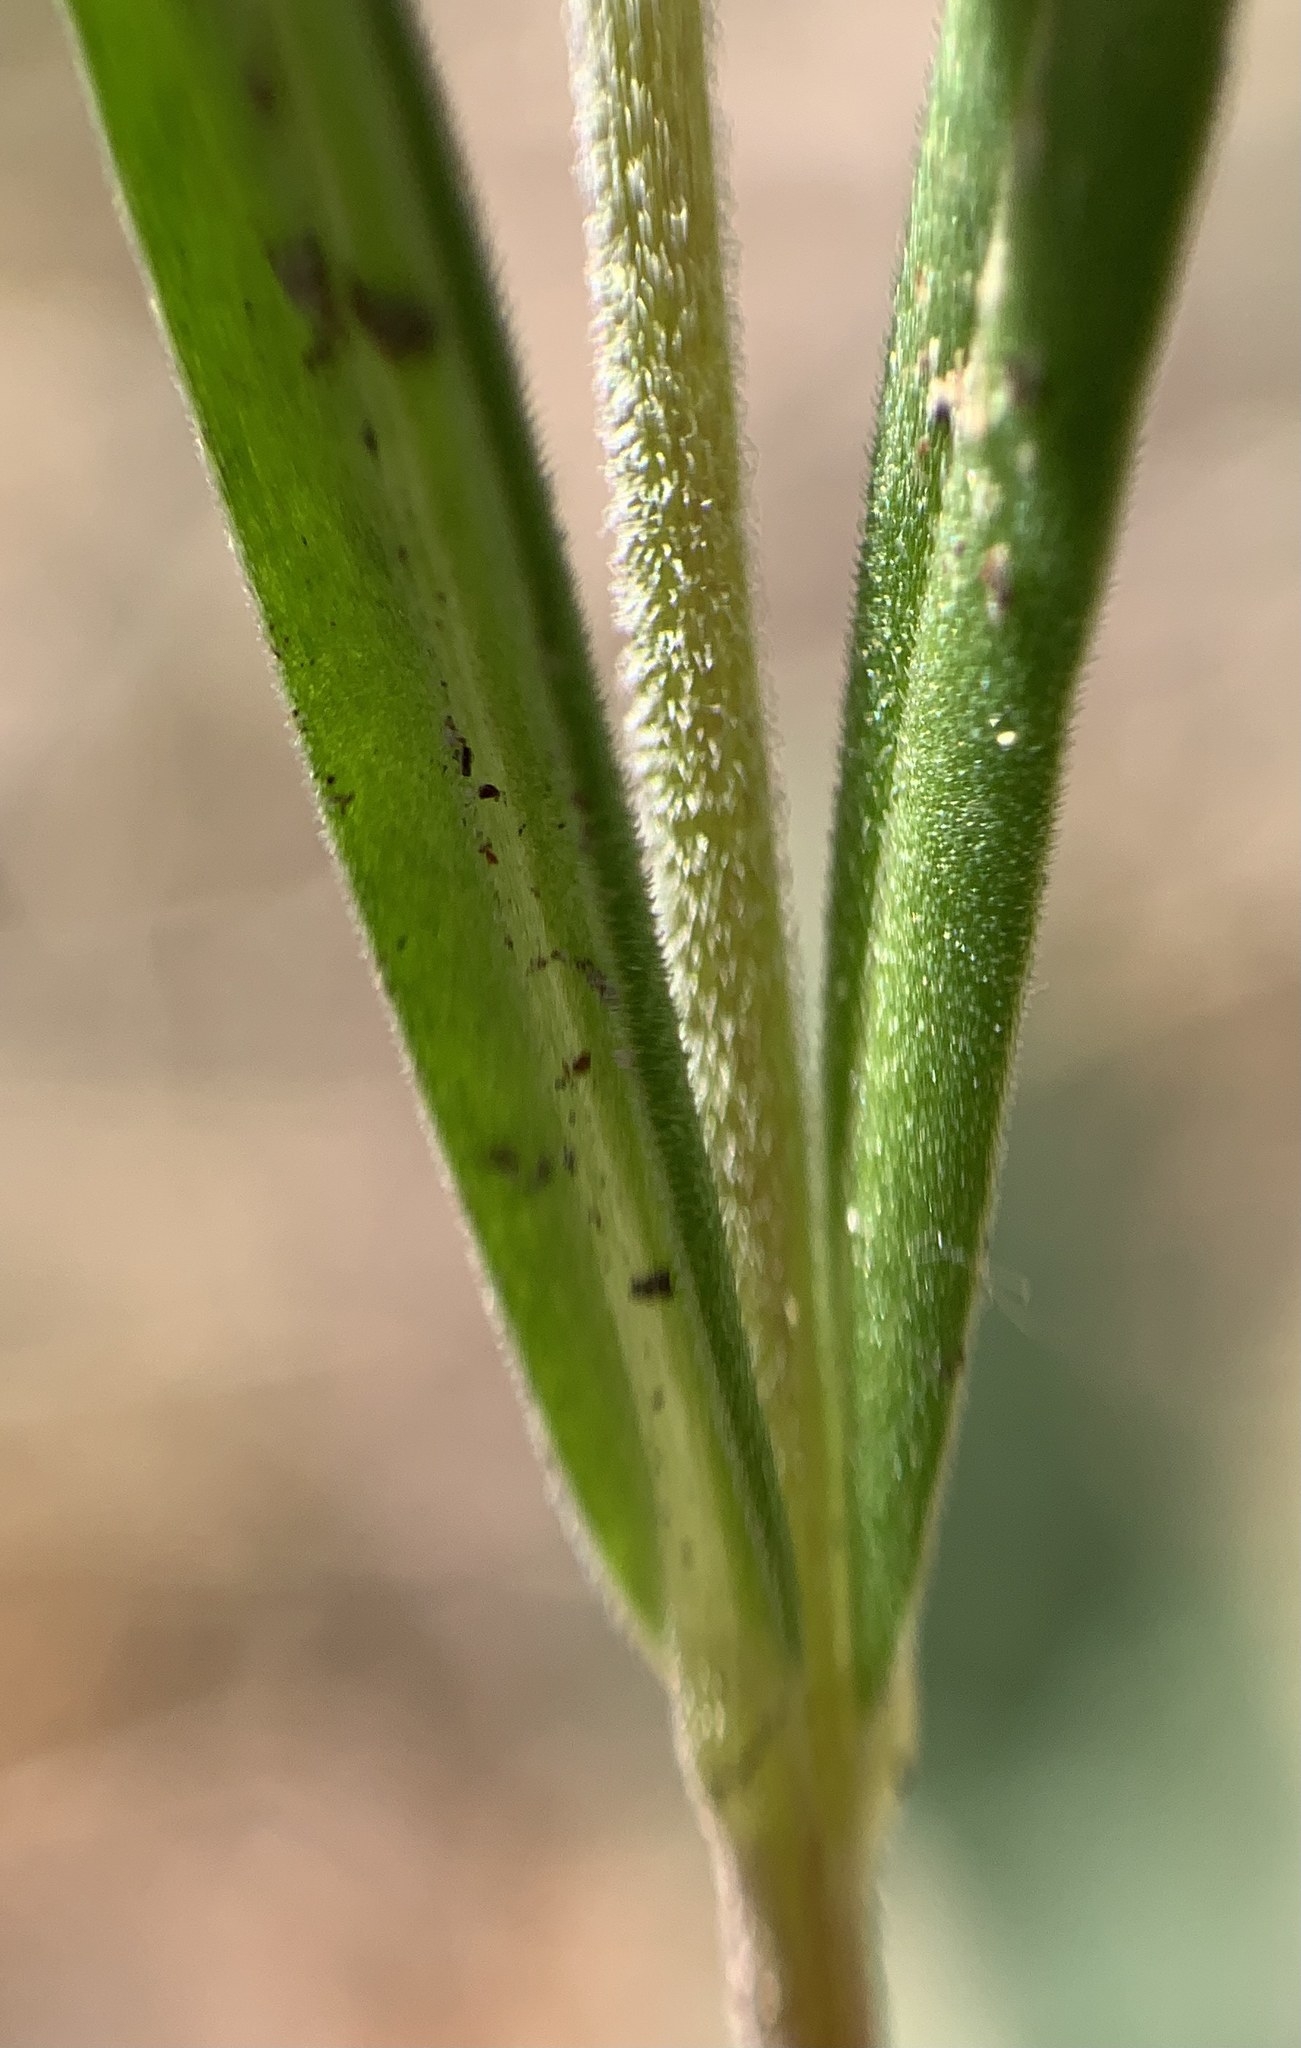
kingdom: Plantae
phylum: Tracheophyta
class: Magnoliopsida
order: Ericales
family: Polemoniaceae
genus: Collomia
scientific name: Collomia linearis
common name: Tiny trumpet
